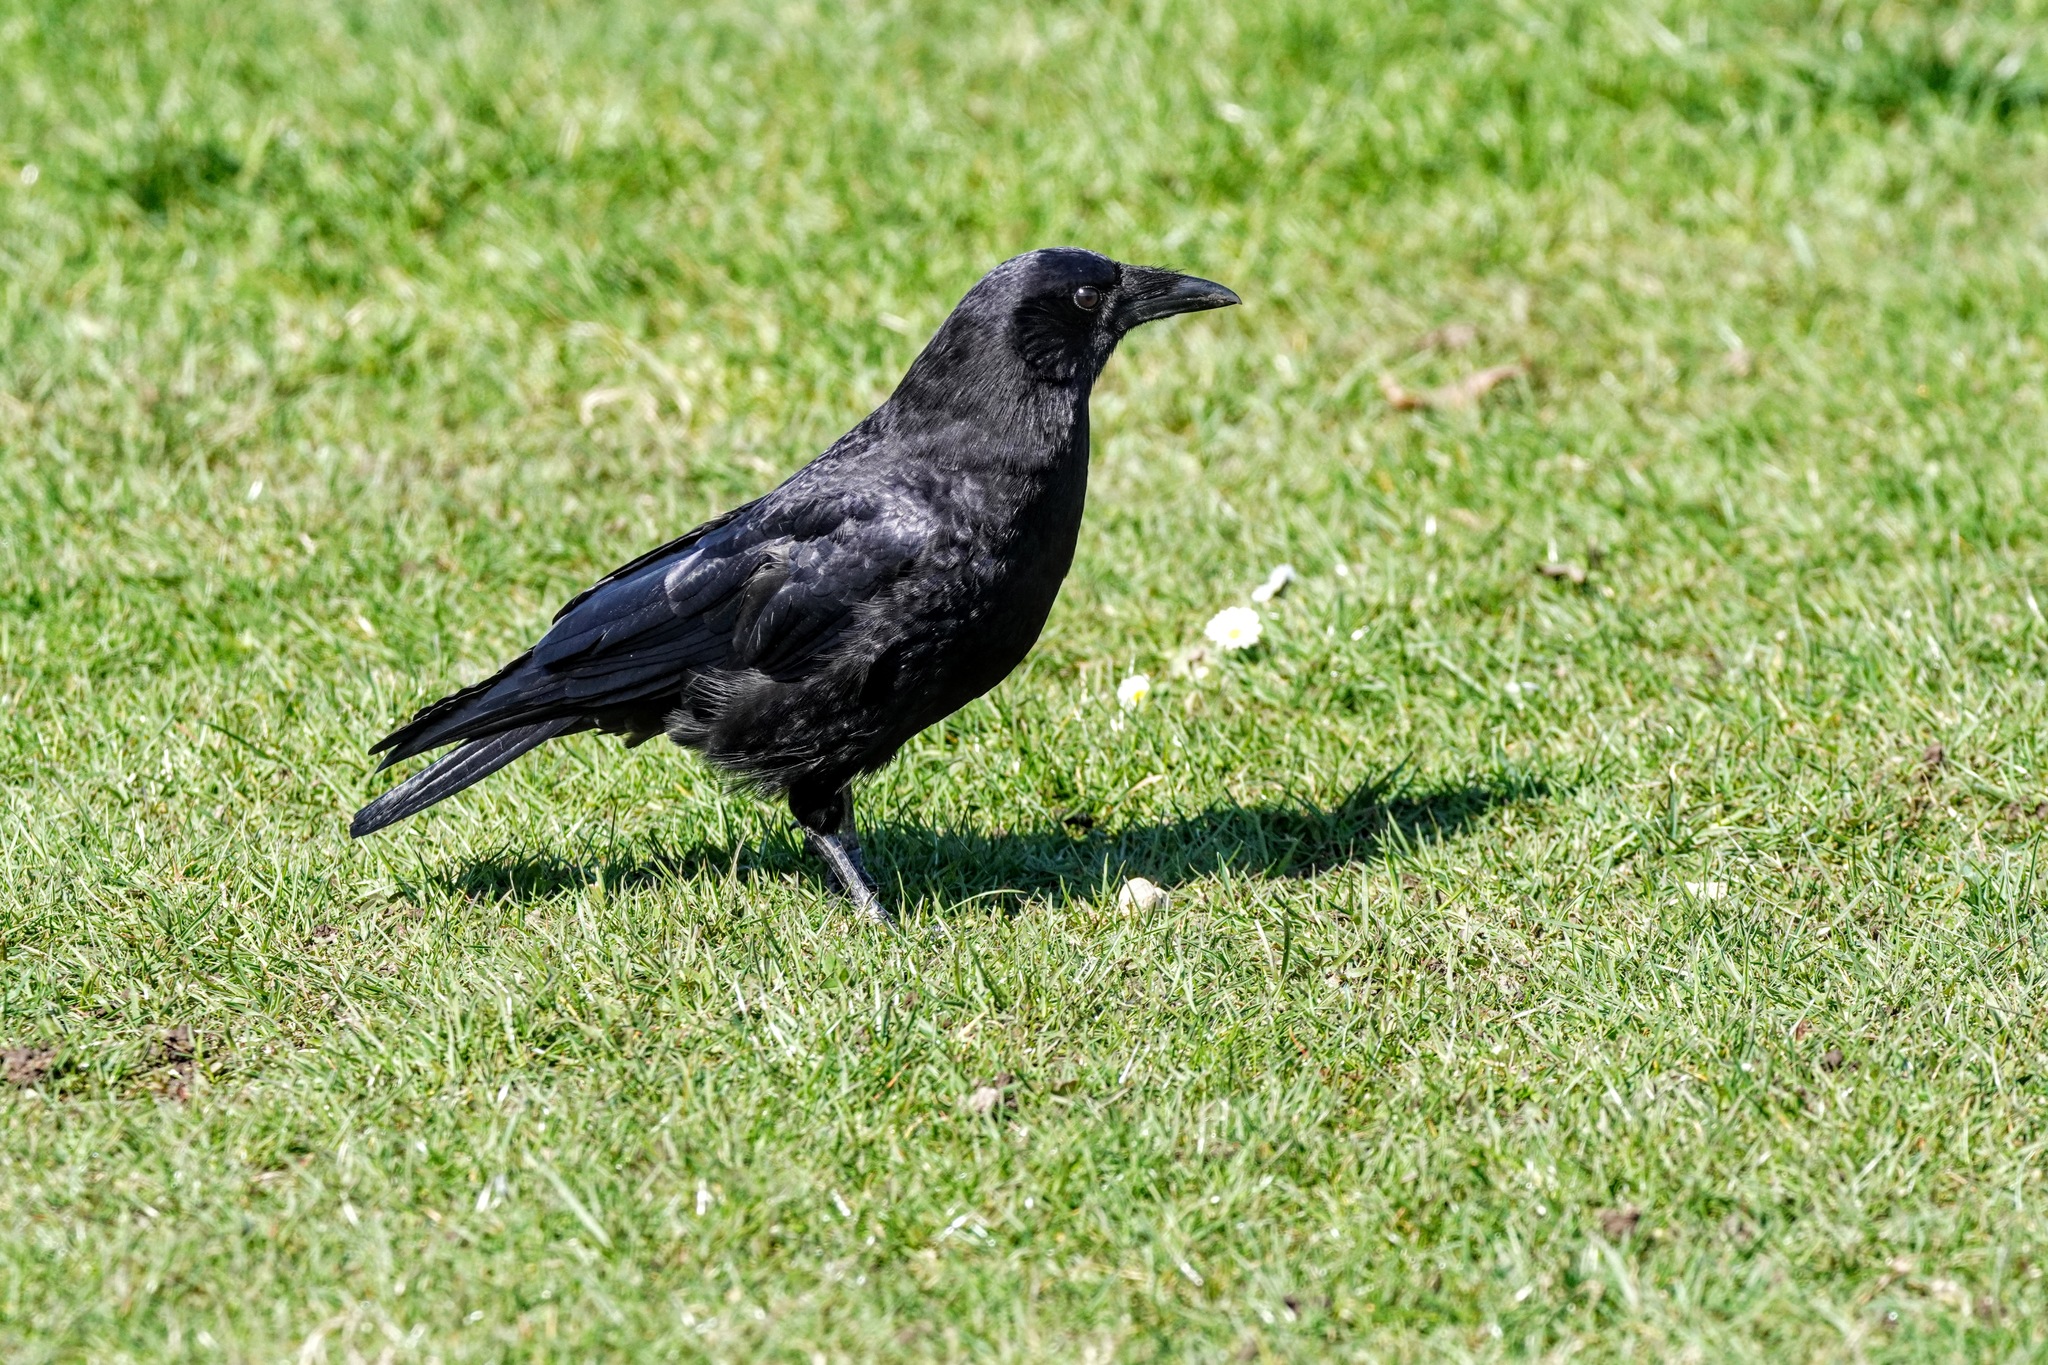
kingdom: Animalia
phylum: Chordata
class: Aves
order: Passeriformes
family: Corvidae
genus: Corvus
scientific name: Corvus brachyrhynchos
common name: American crow
